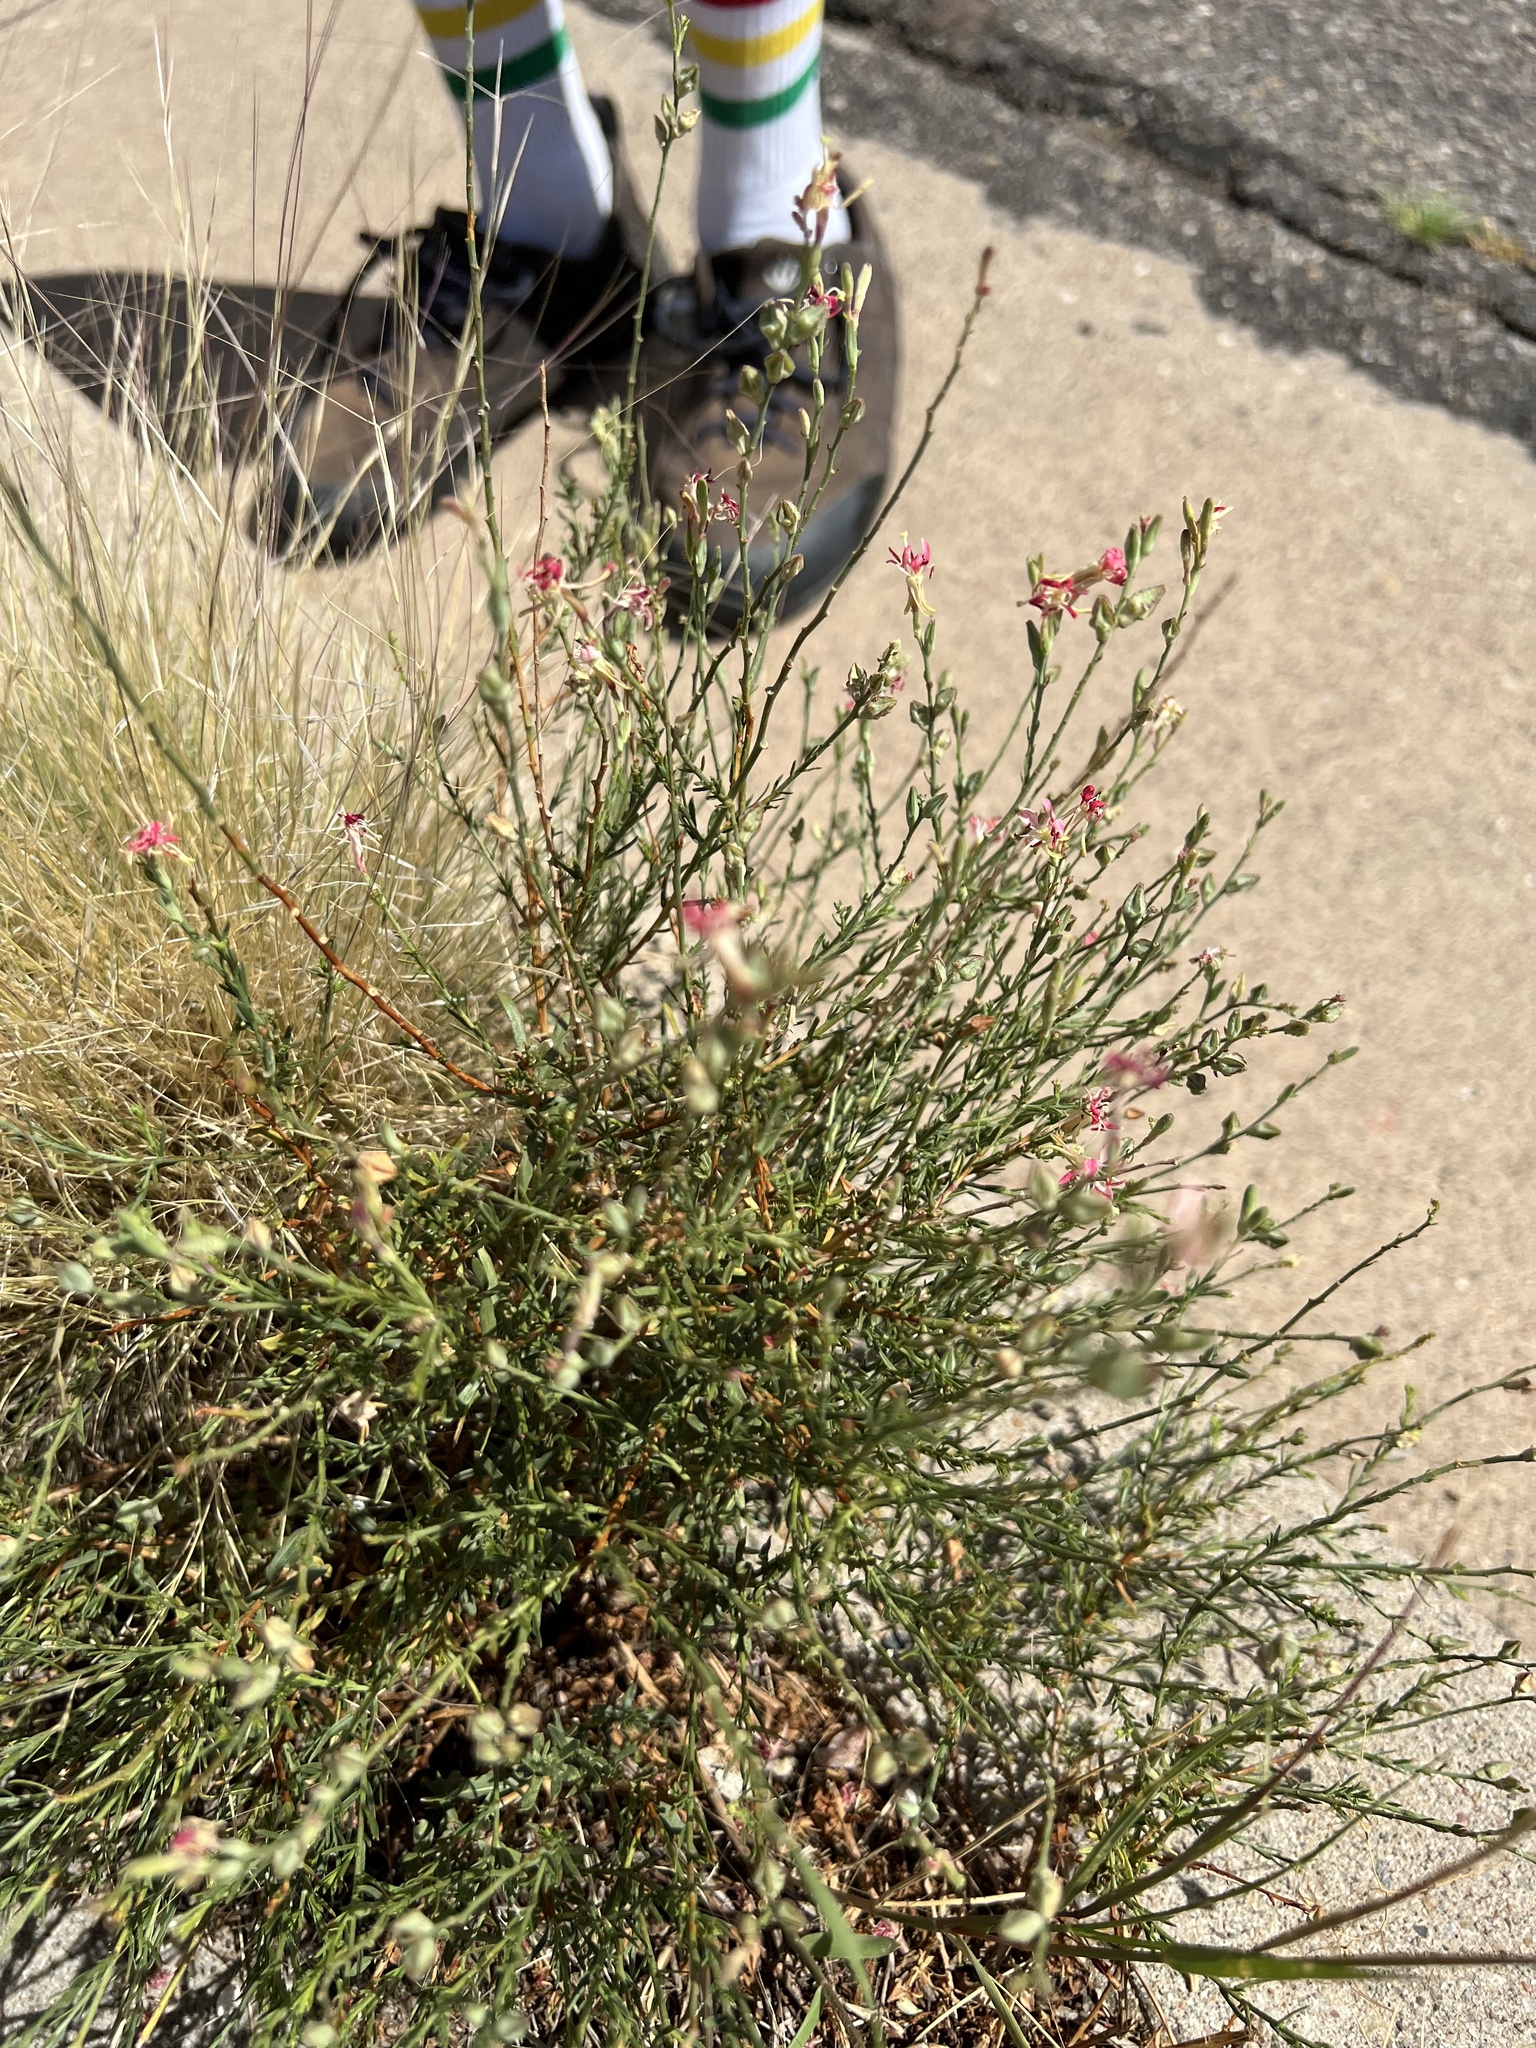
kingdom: Plantae
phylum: Tracheophyta
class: Magnoliopsida
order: Myrtales
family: Onagraceae
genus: Oenothera
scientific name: Oenothera suffrutescens
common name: Scarlet beeblossom
